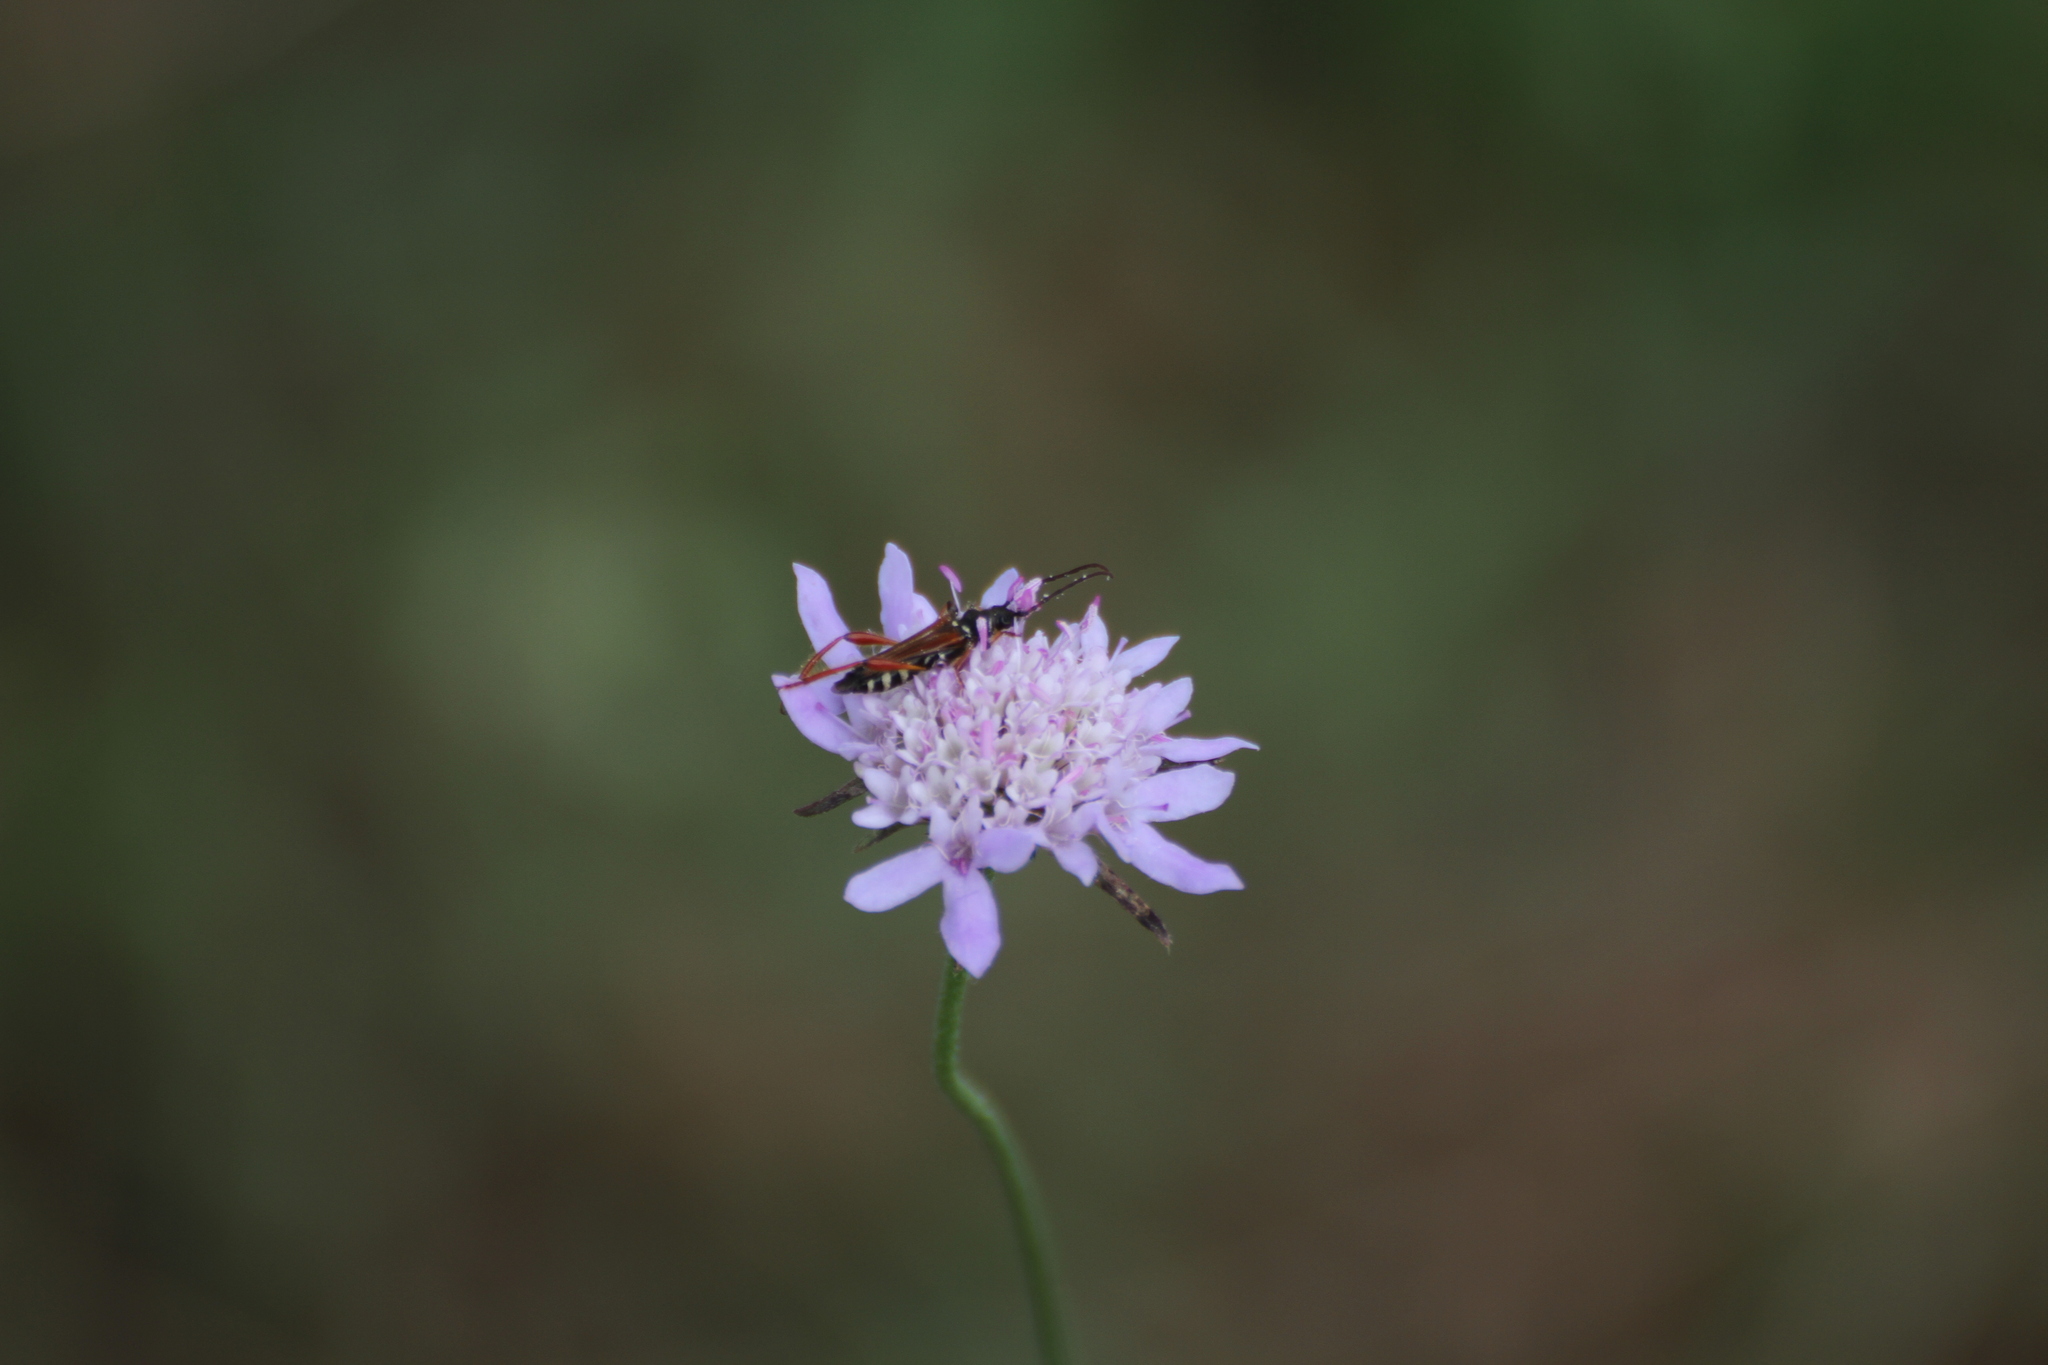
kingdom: Animalia
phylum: Arthropoda
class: Insecta
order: Coleoptera
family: Cerambycidae
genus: Stenopterus
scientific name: Stenopterus rufus
